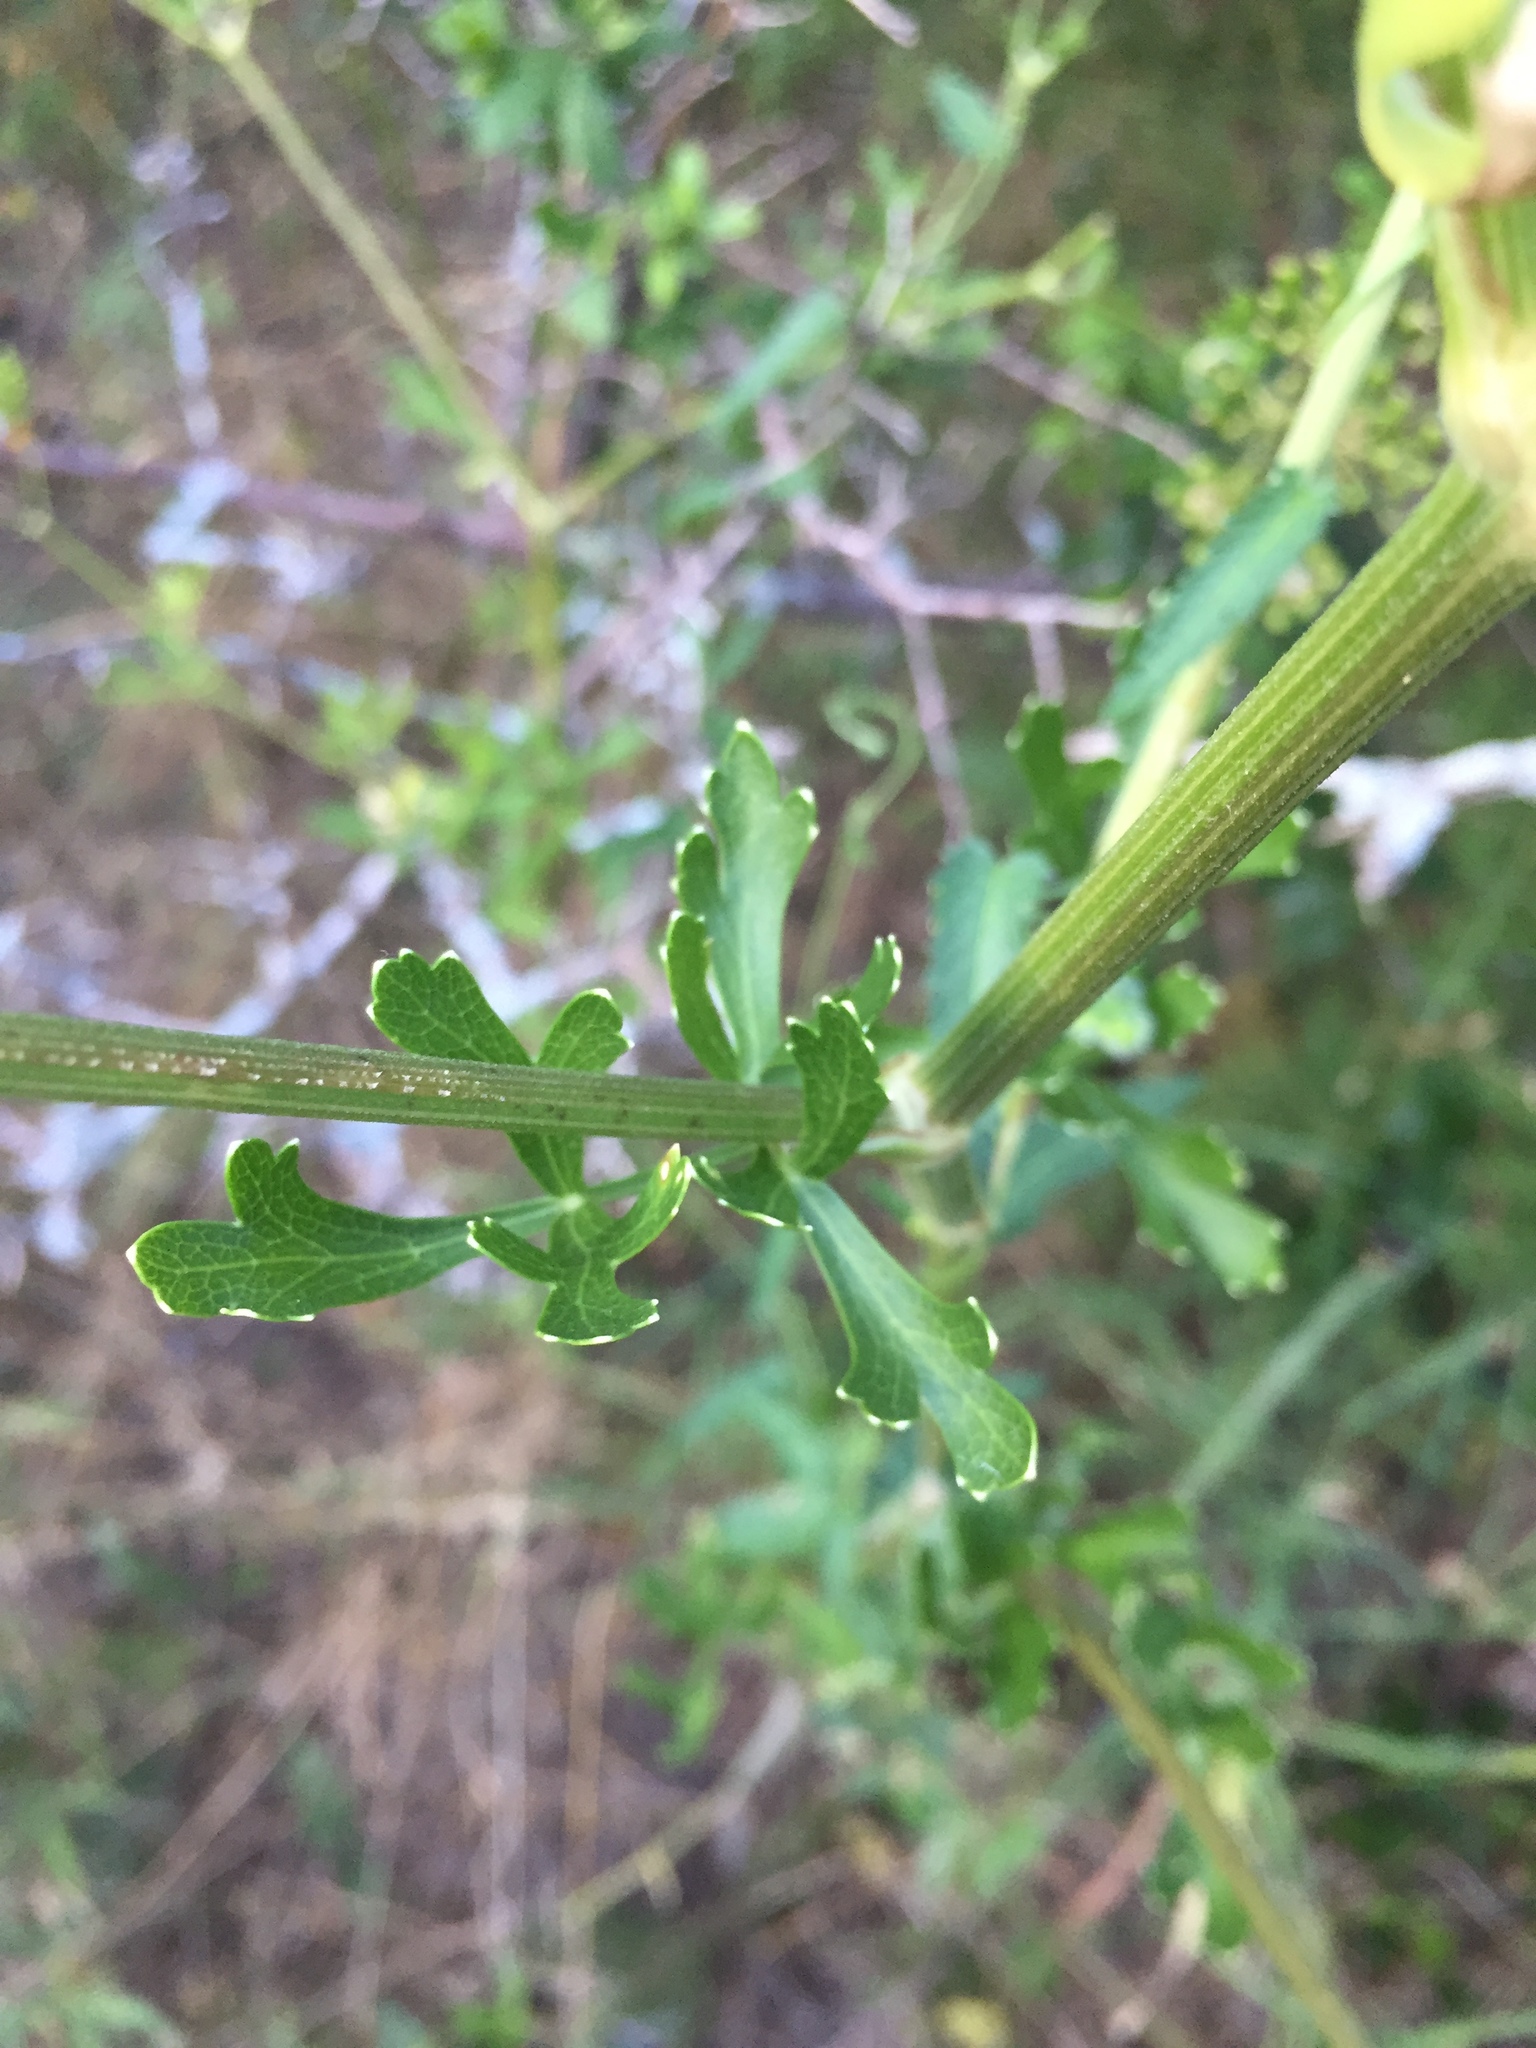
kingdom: Plantae
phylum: Tracheophyta
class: Magnoliopsida
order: Apiales
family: Apiaceae
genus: Polytaenia
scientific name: Polytaenia texana
